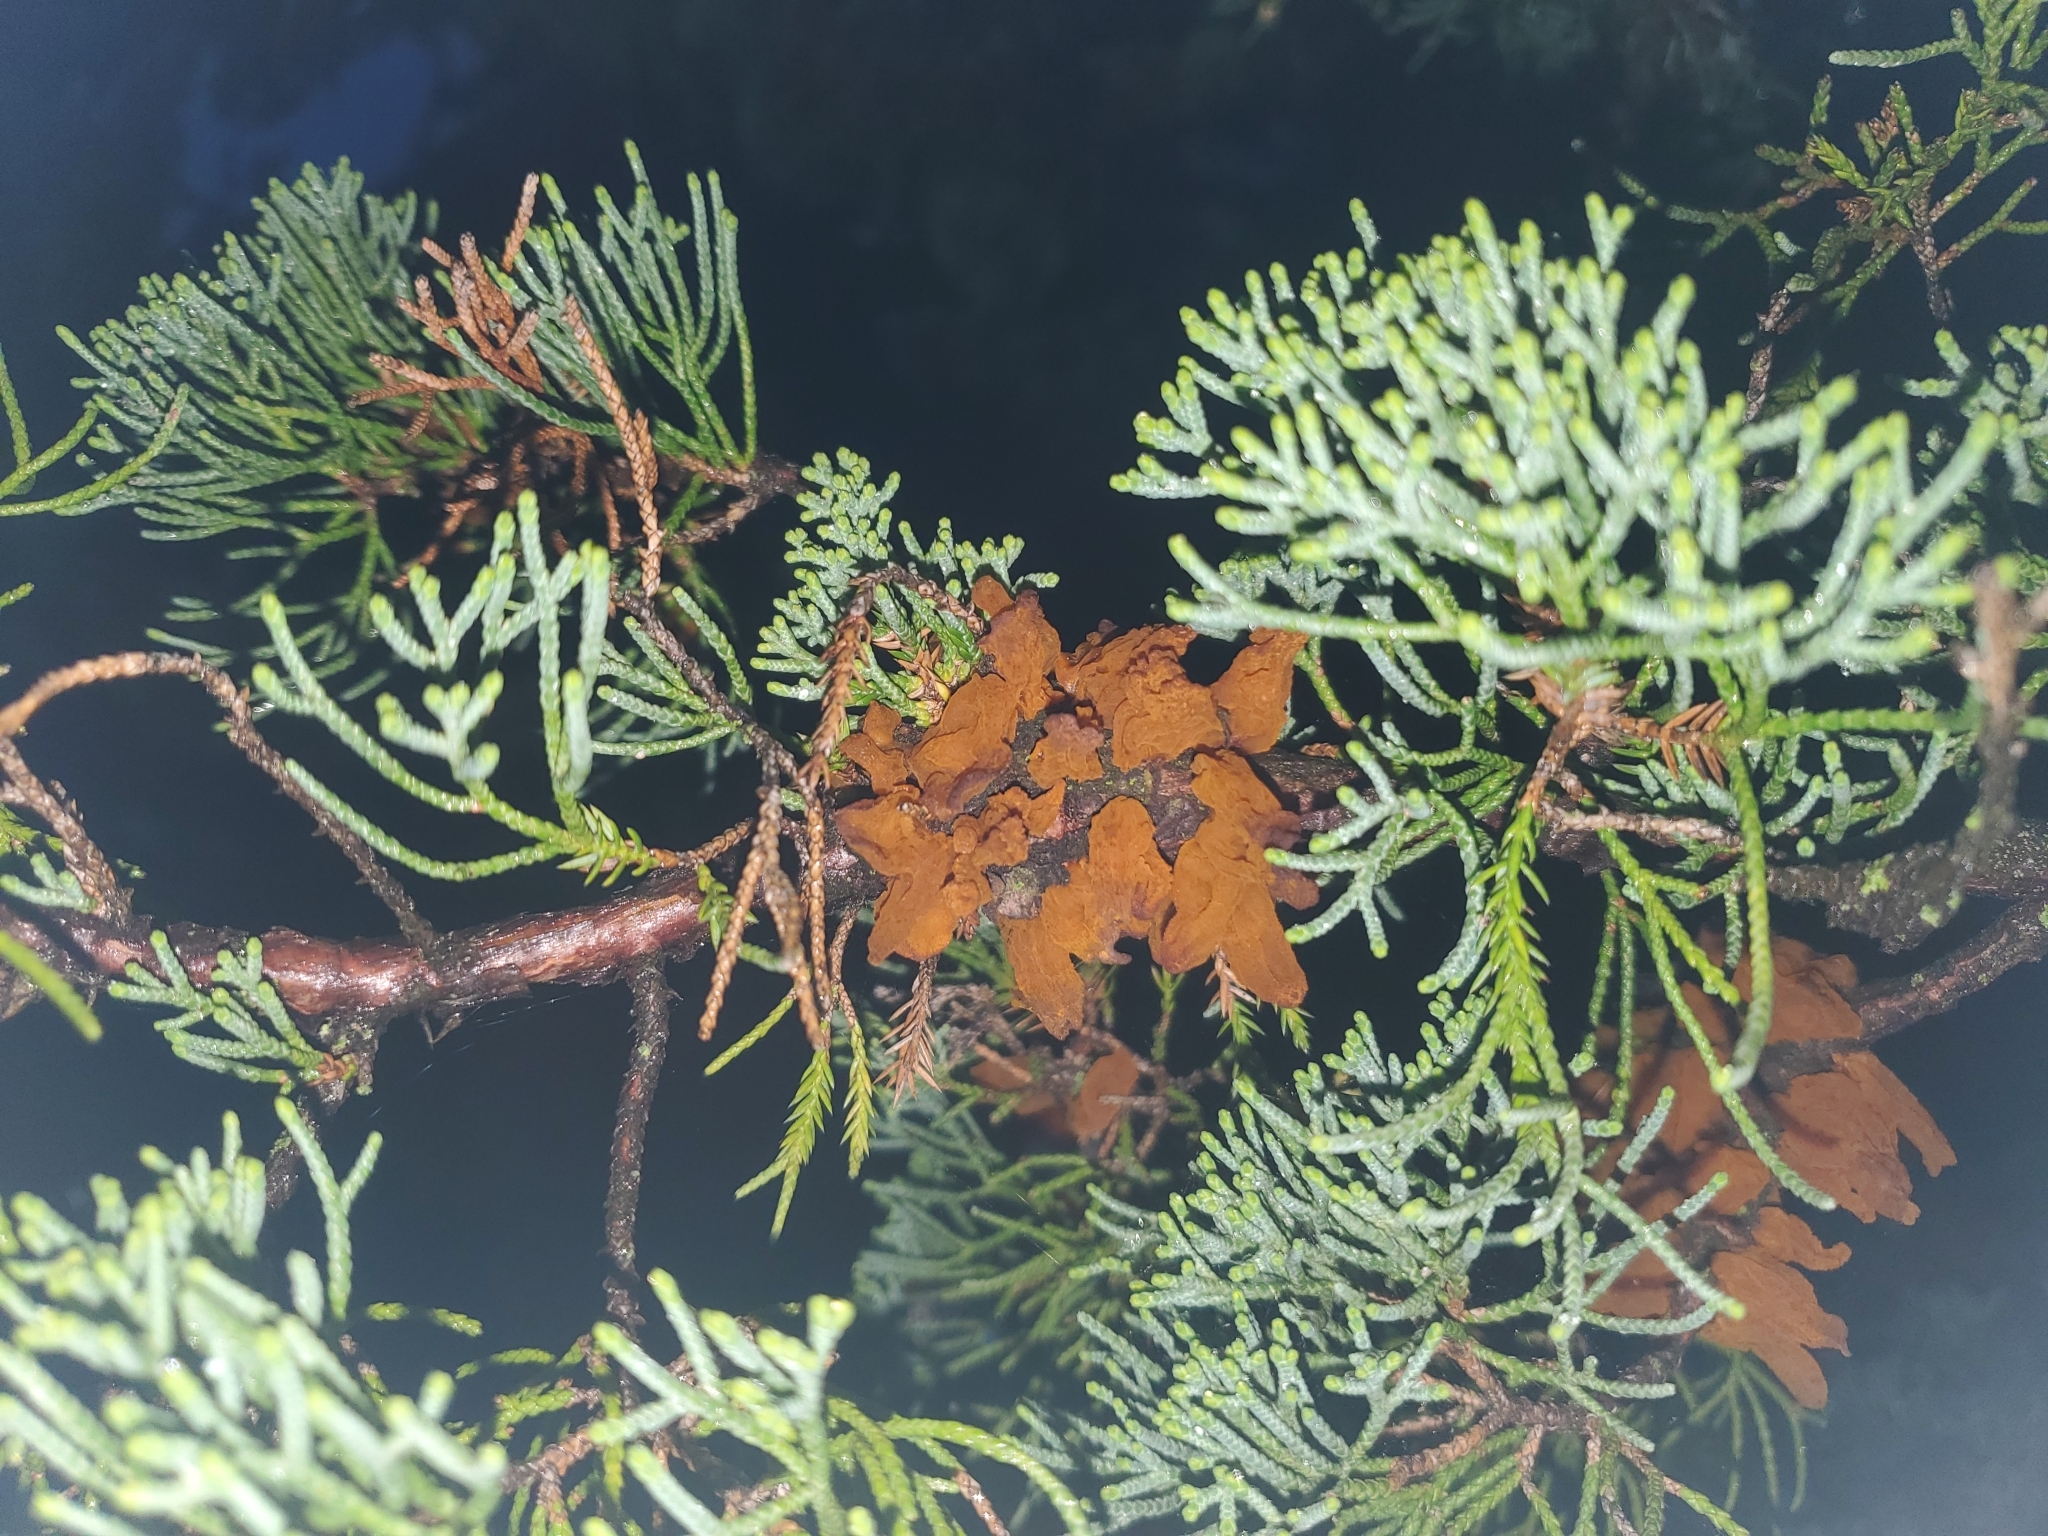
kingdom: Fungi
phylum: Basidiomycota
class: Pucciniomycetes
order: Pucciniales
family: Gymnosporangiaceae
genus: Gymnosporangium
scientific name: Gymnosporangium juniperi-virginianae
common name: Juniper-apple rust
